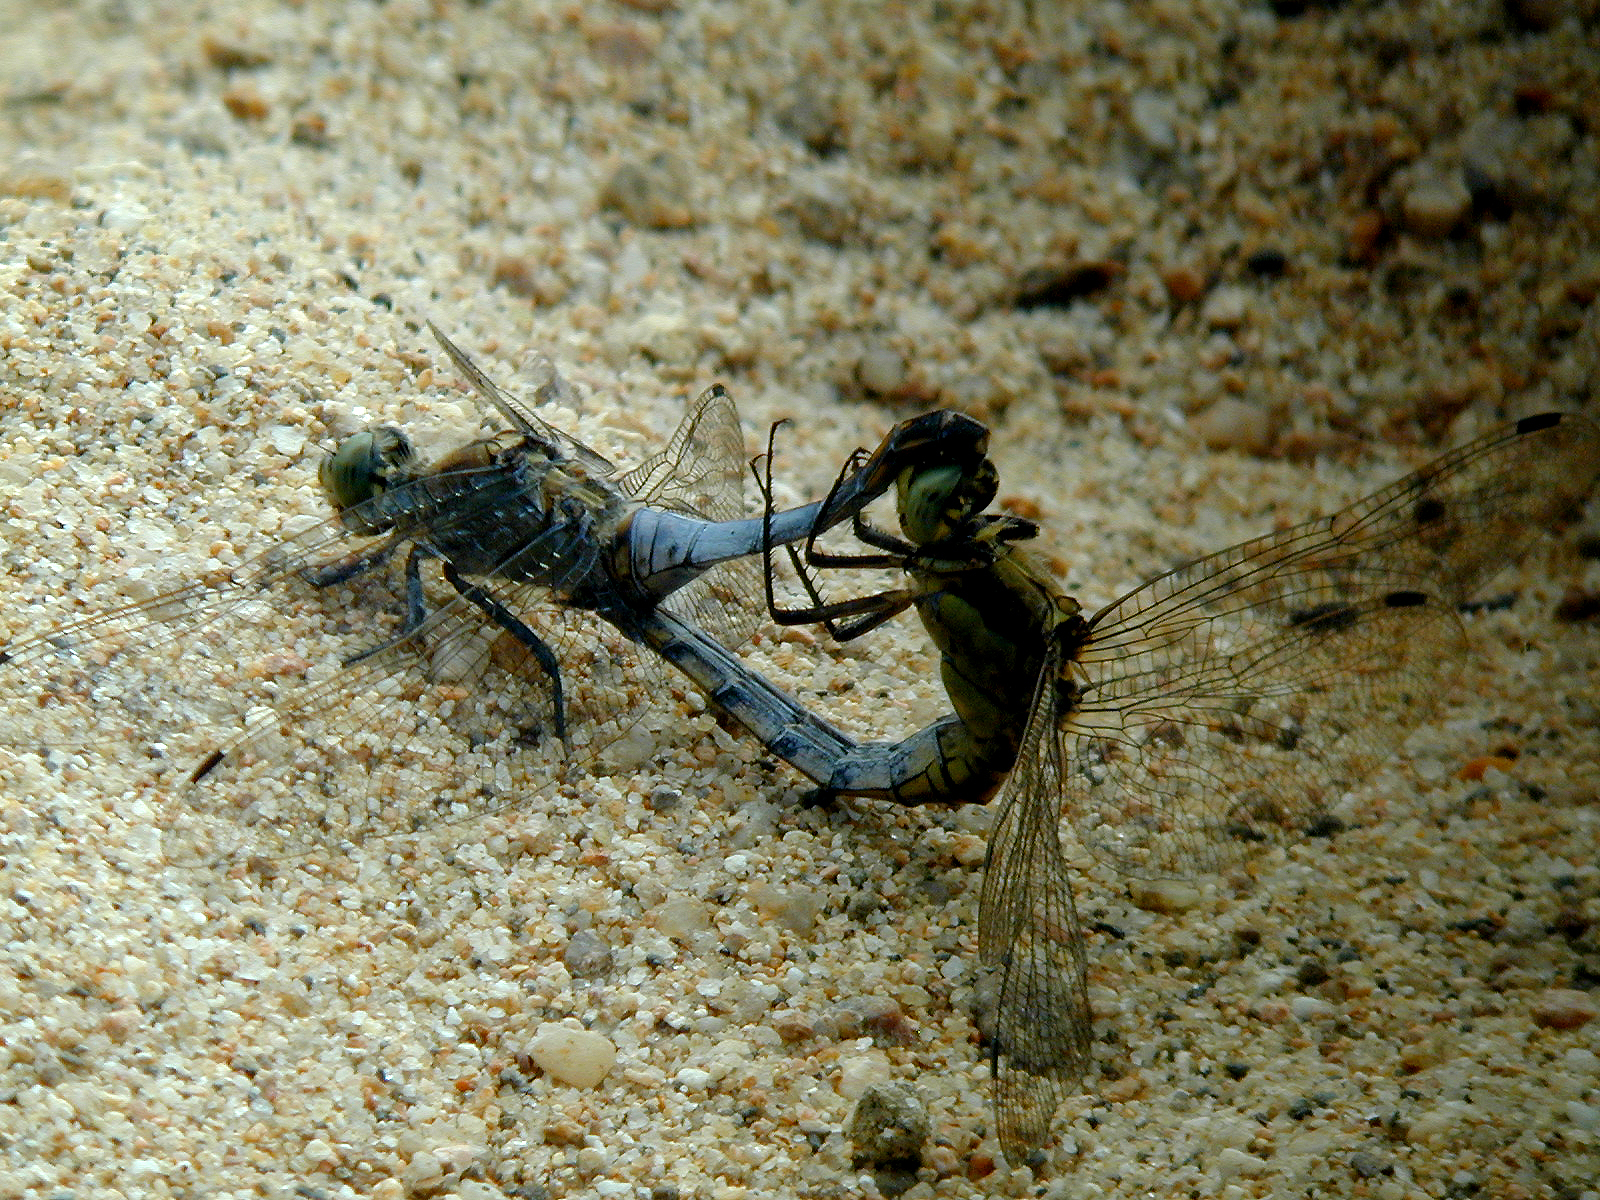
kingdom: Animalia
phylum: Arthropoda
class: Insecta
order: Odonata
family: Libellulidae
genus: Orthetrum
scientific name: Orthetrum cancellatum
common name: Black-tailed skimmer
